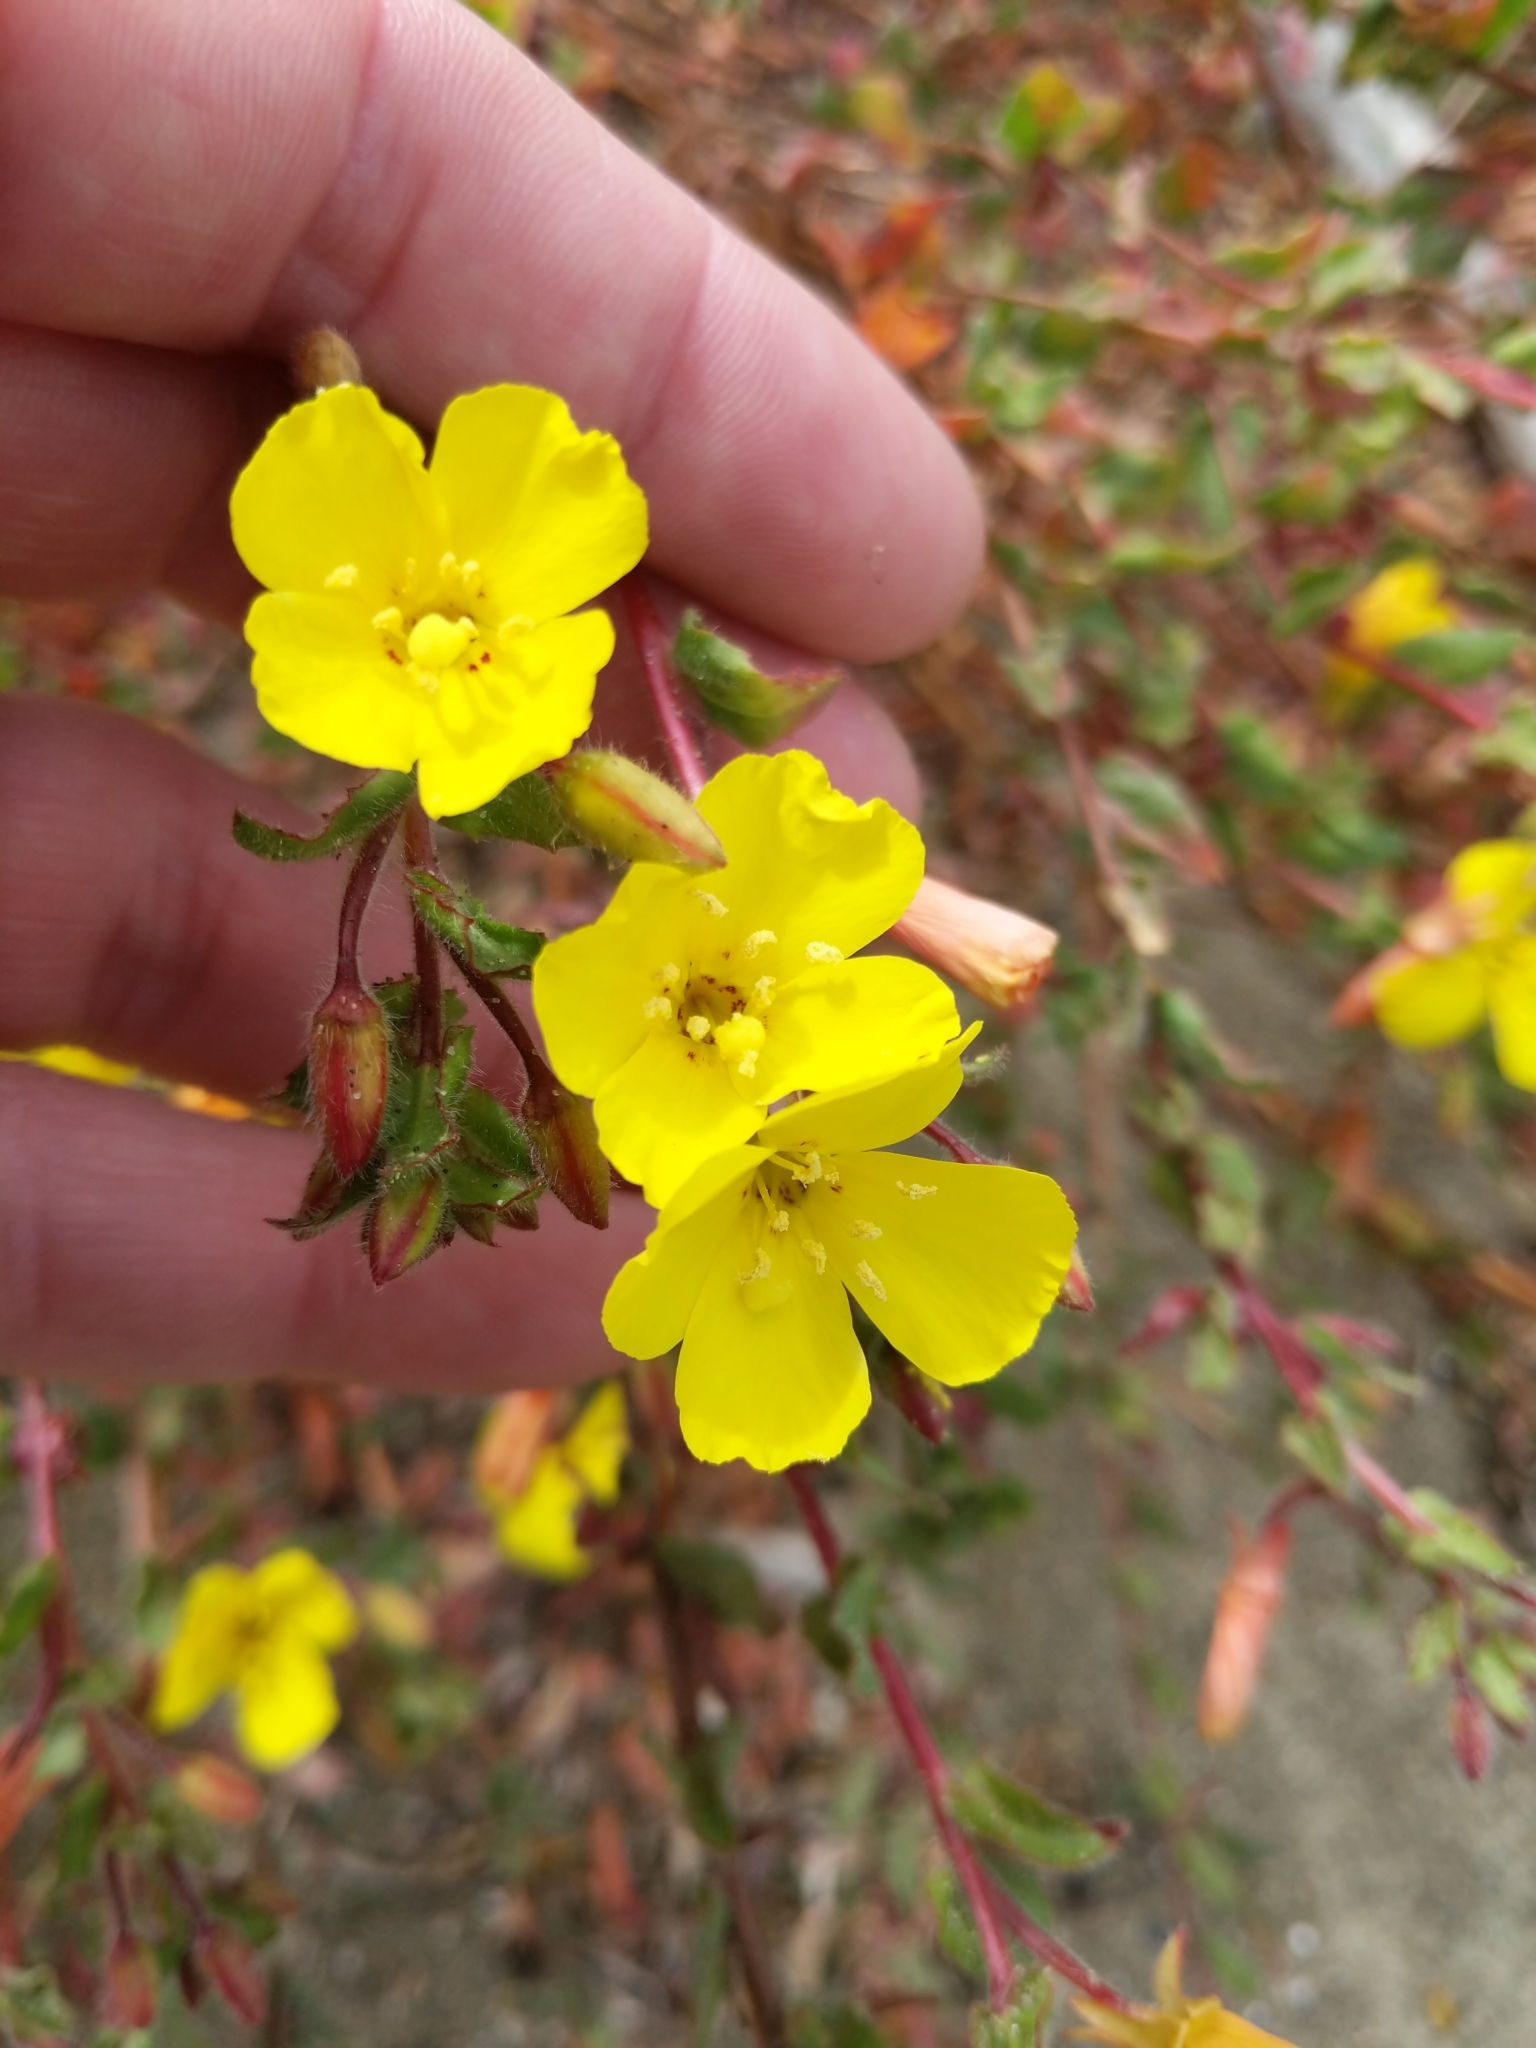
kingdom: Plantae
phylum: Tracheophyta
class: Magnoliopsida
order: Myrtales
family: Onagraceae
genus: Camissoniopsis
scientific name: Camissoniopsis cheiranthifolia
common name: Beach suncup
